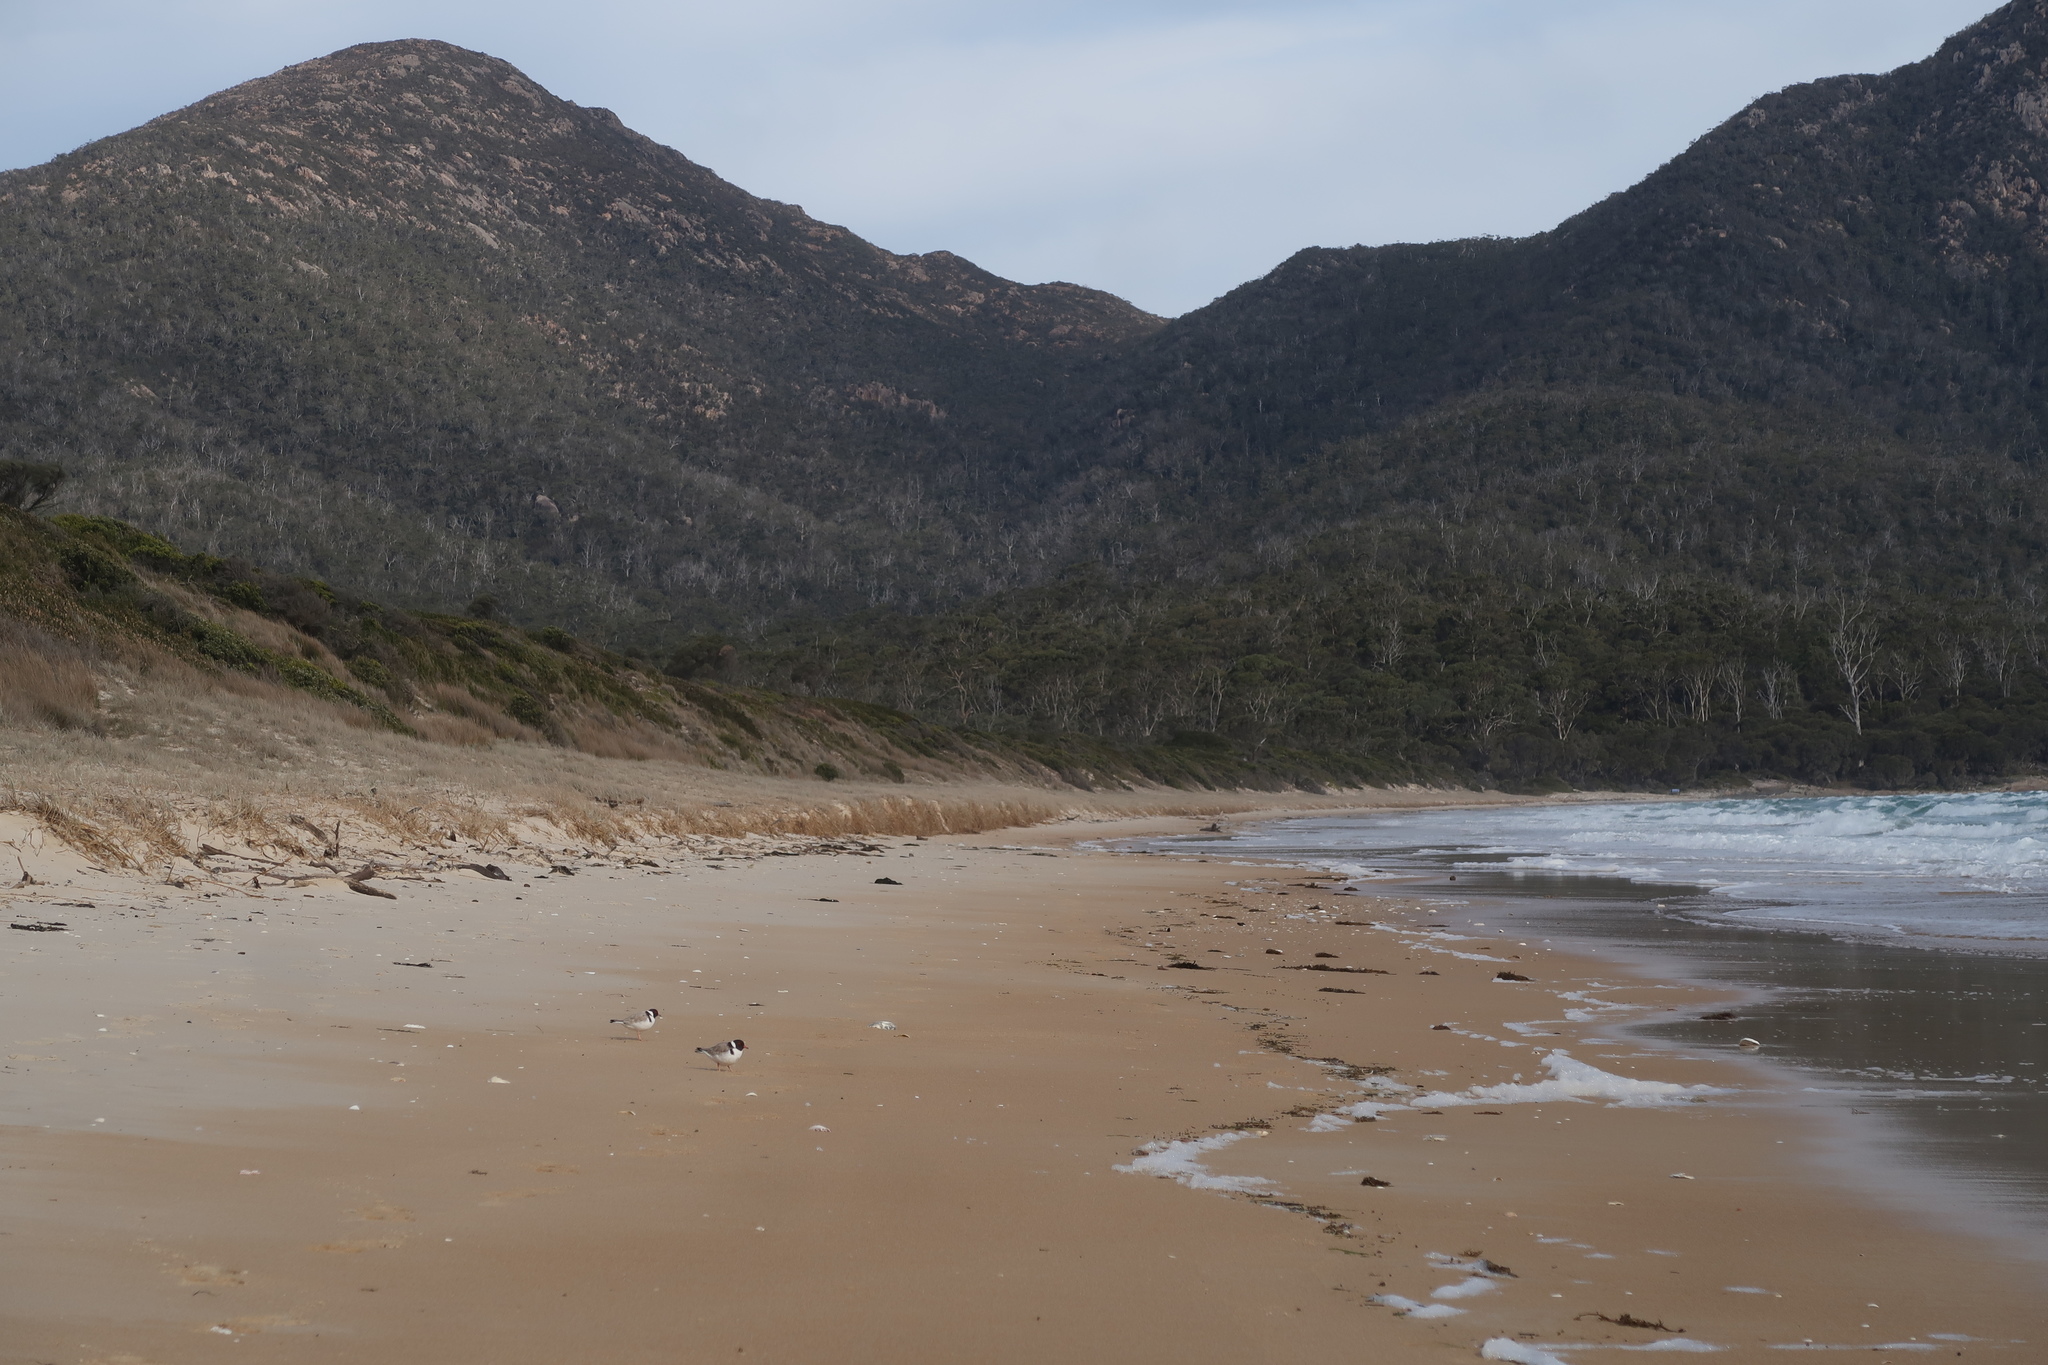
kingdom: Animalia
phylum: Chordata
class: Aves
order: Charadriiformes
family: Charadriidae
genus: Thinornis
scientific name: Thinornis cucullatus
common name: Hooded dotterel
